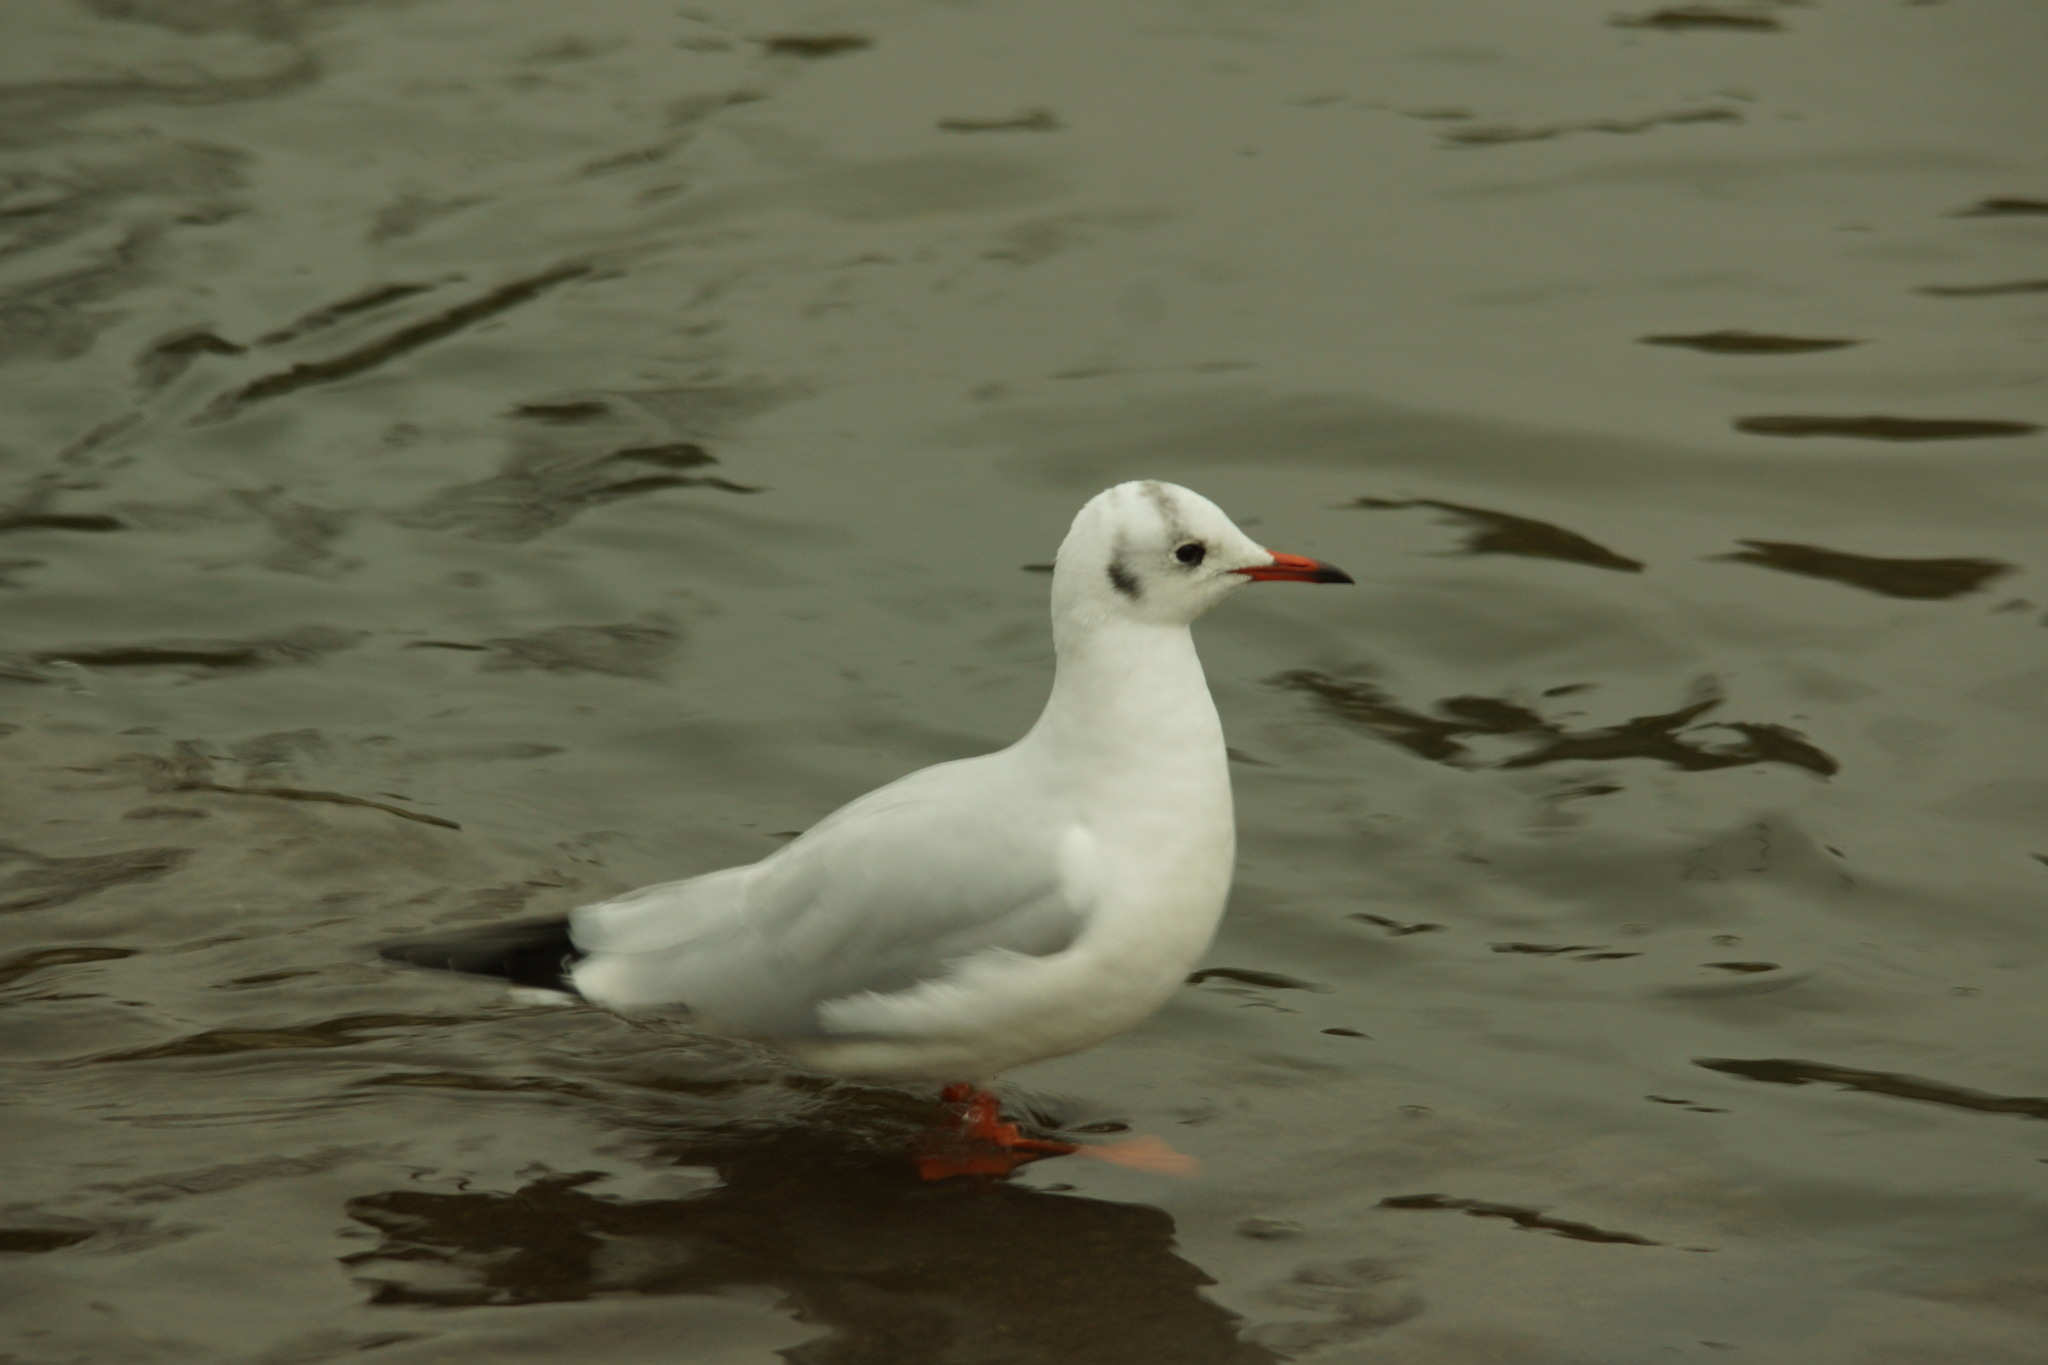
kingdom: Animalia
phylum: Chordata
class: Aves
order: Charadriiformes
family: Laridae
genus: Chroicocephalus
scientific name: Chroicocephalus ridibundus
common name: Black-headed gull
